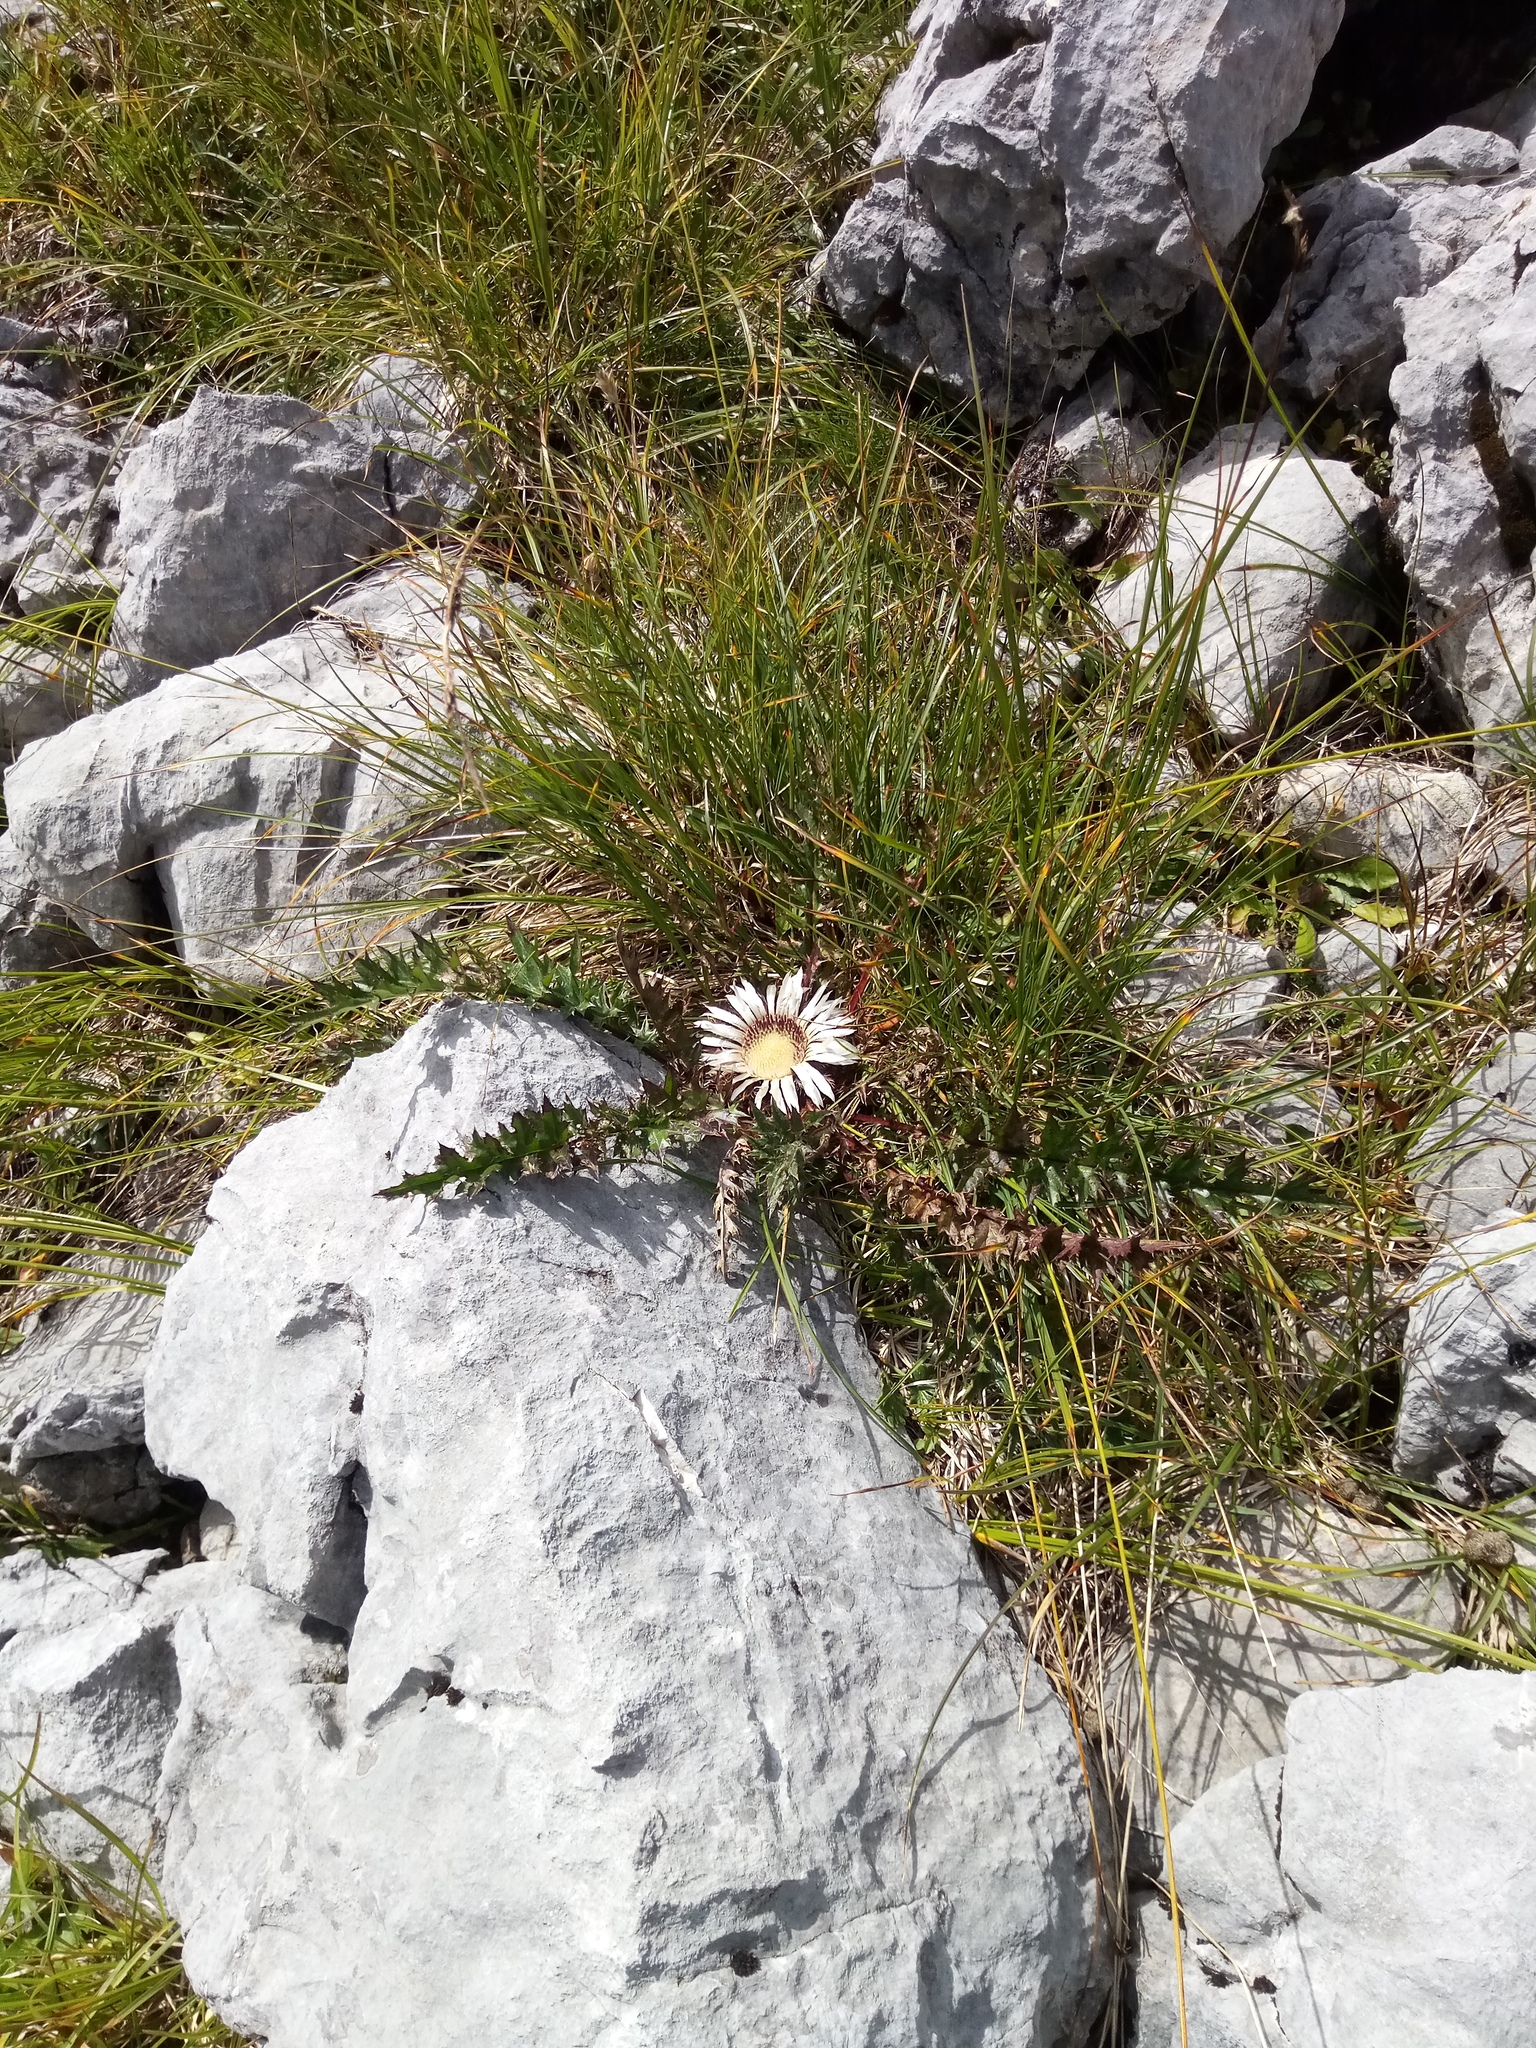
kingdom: Plantae
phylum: Tracheophyta
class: Magnoliopsida
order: Asterales
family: Asteraceae
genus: Carlina
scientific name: Carlina acaulis
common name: Stemless carline thistle
